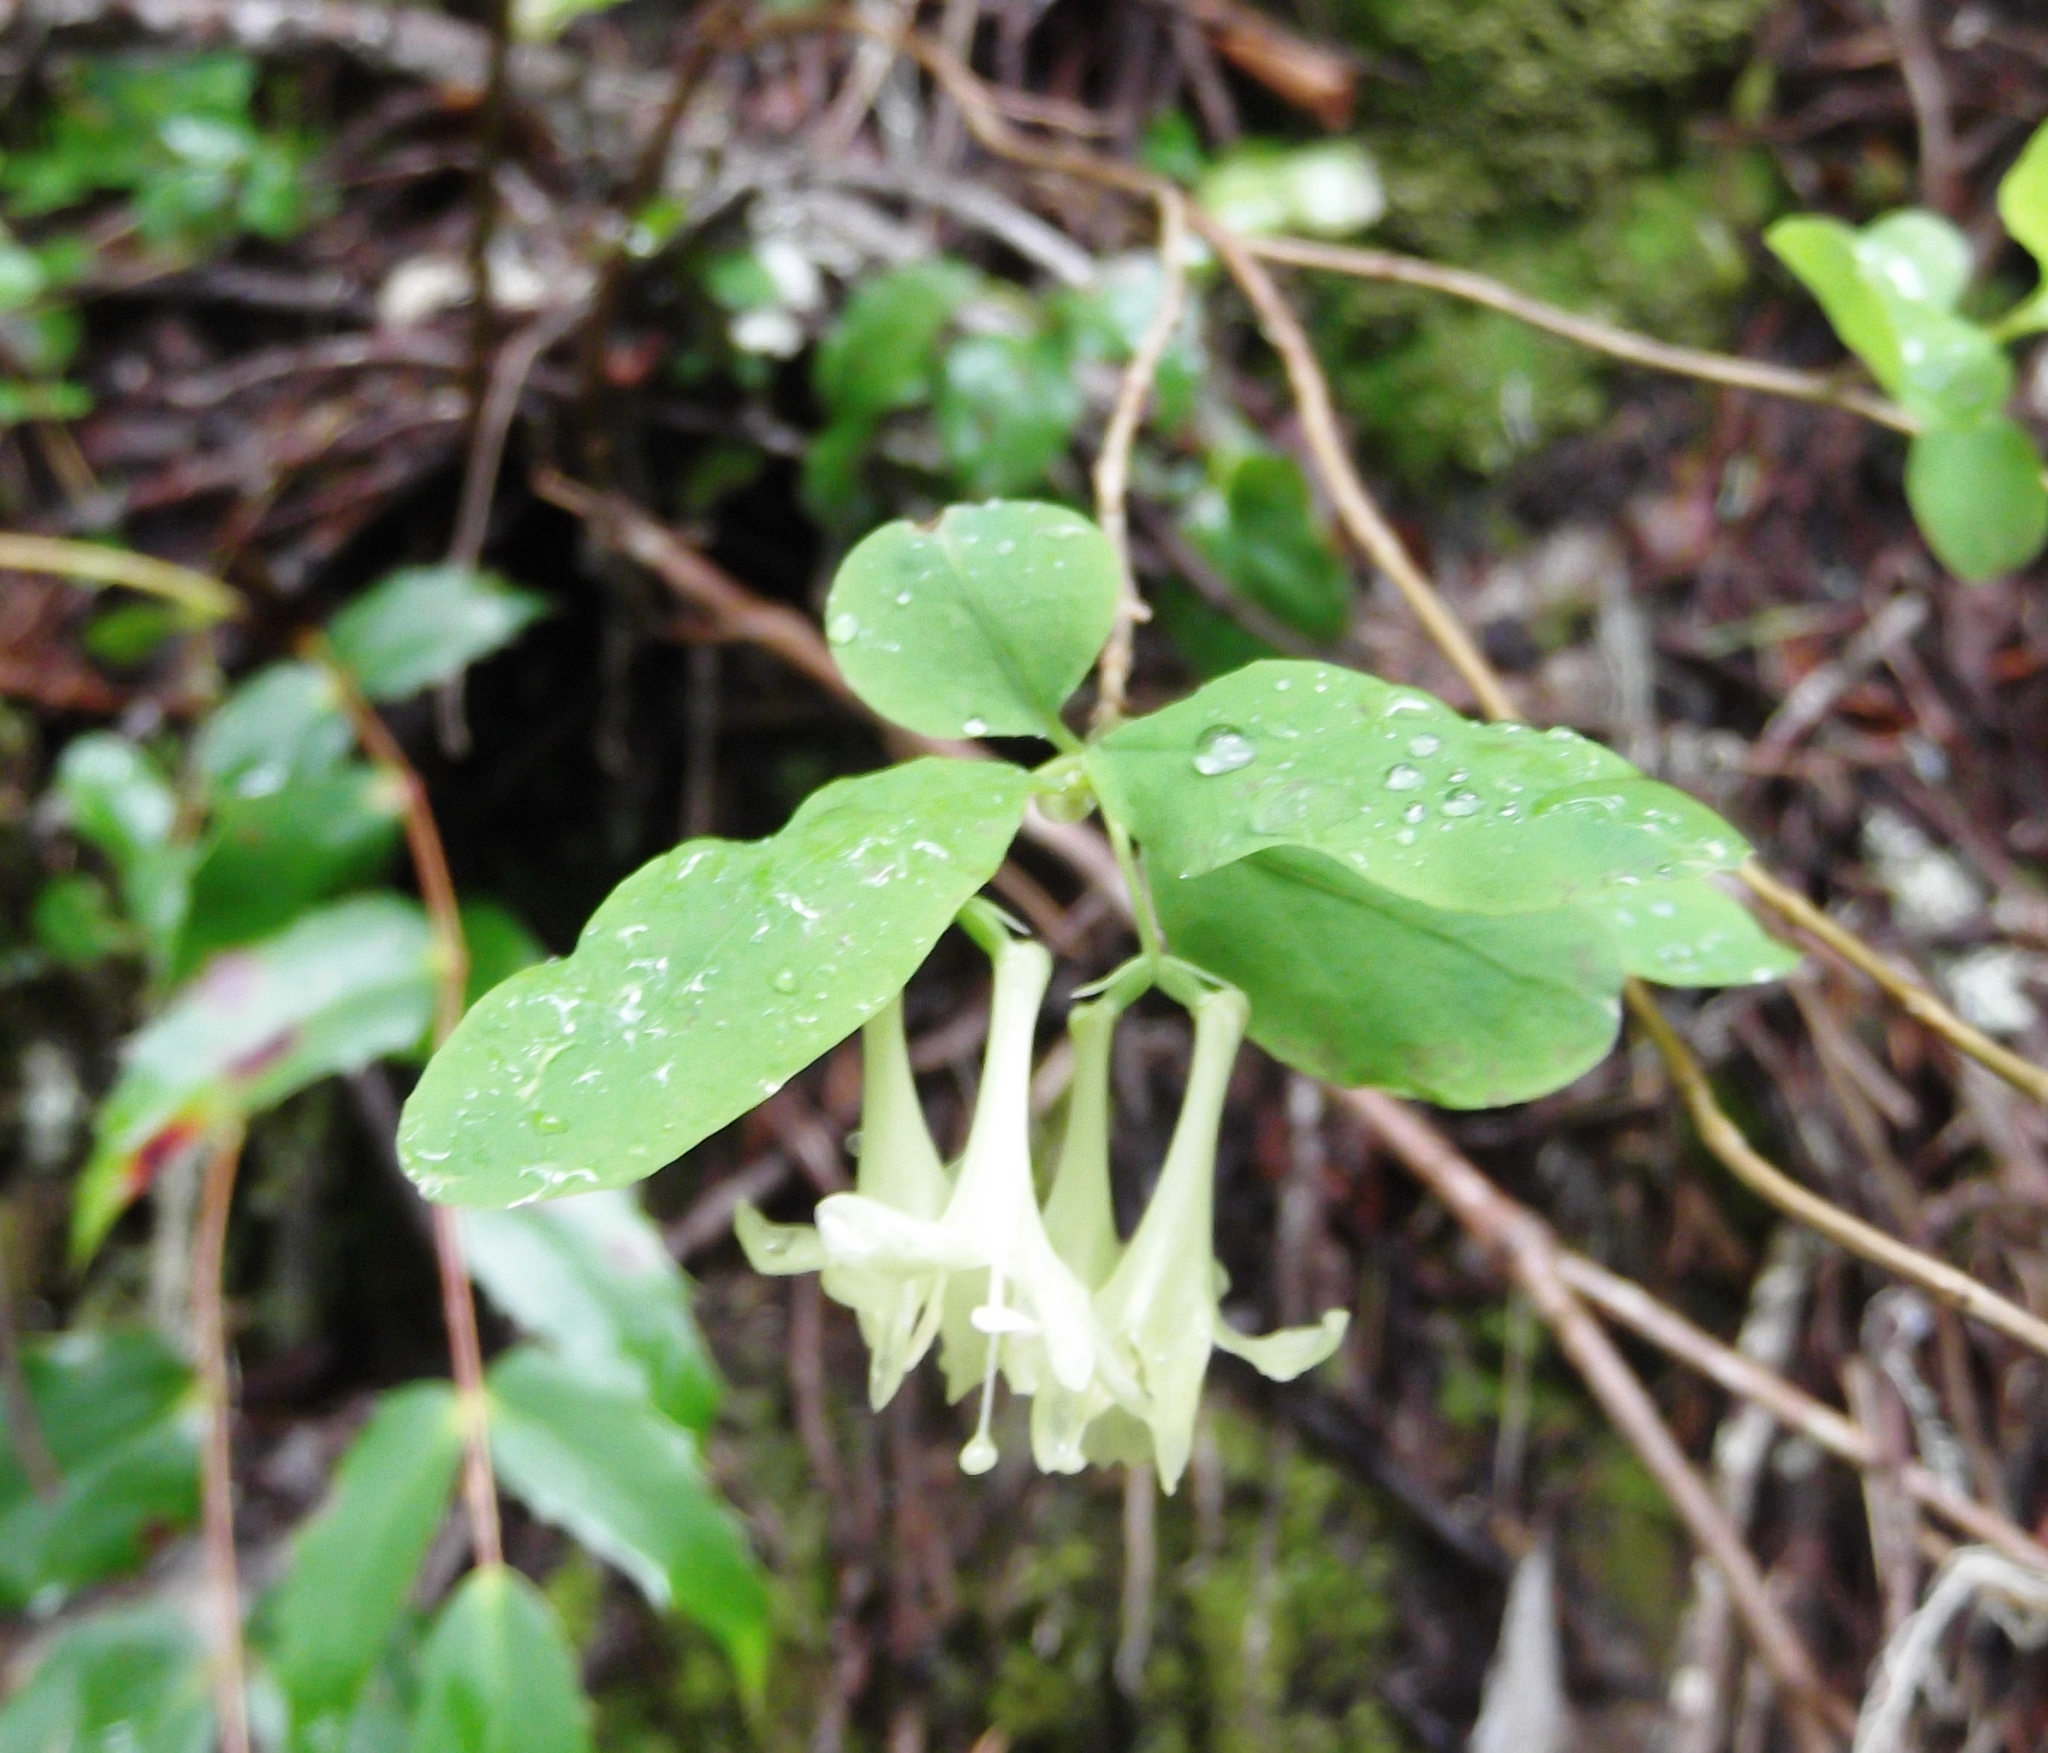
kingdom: Plantae
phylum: Tracheophyta
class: Magnoliopsida
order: Dipsacales
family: Caprifoliaceae
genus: Lonicera
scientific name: Lonicera utahensis
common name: Utah honeysuckle
